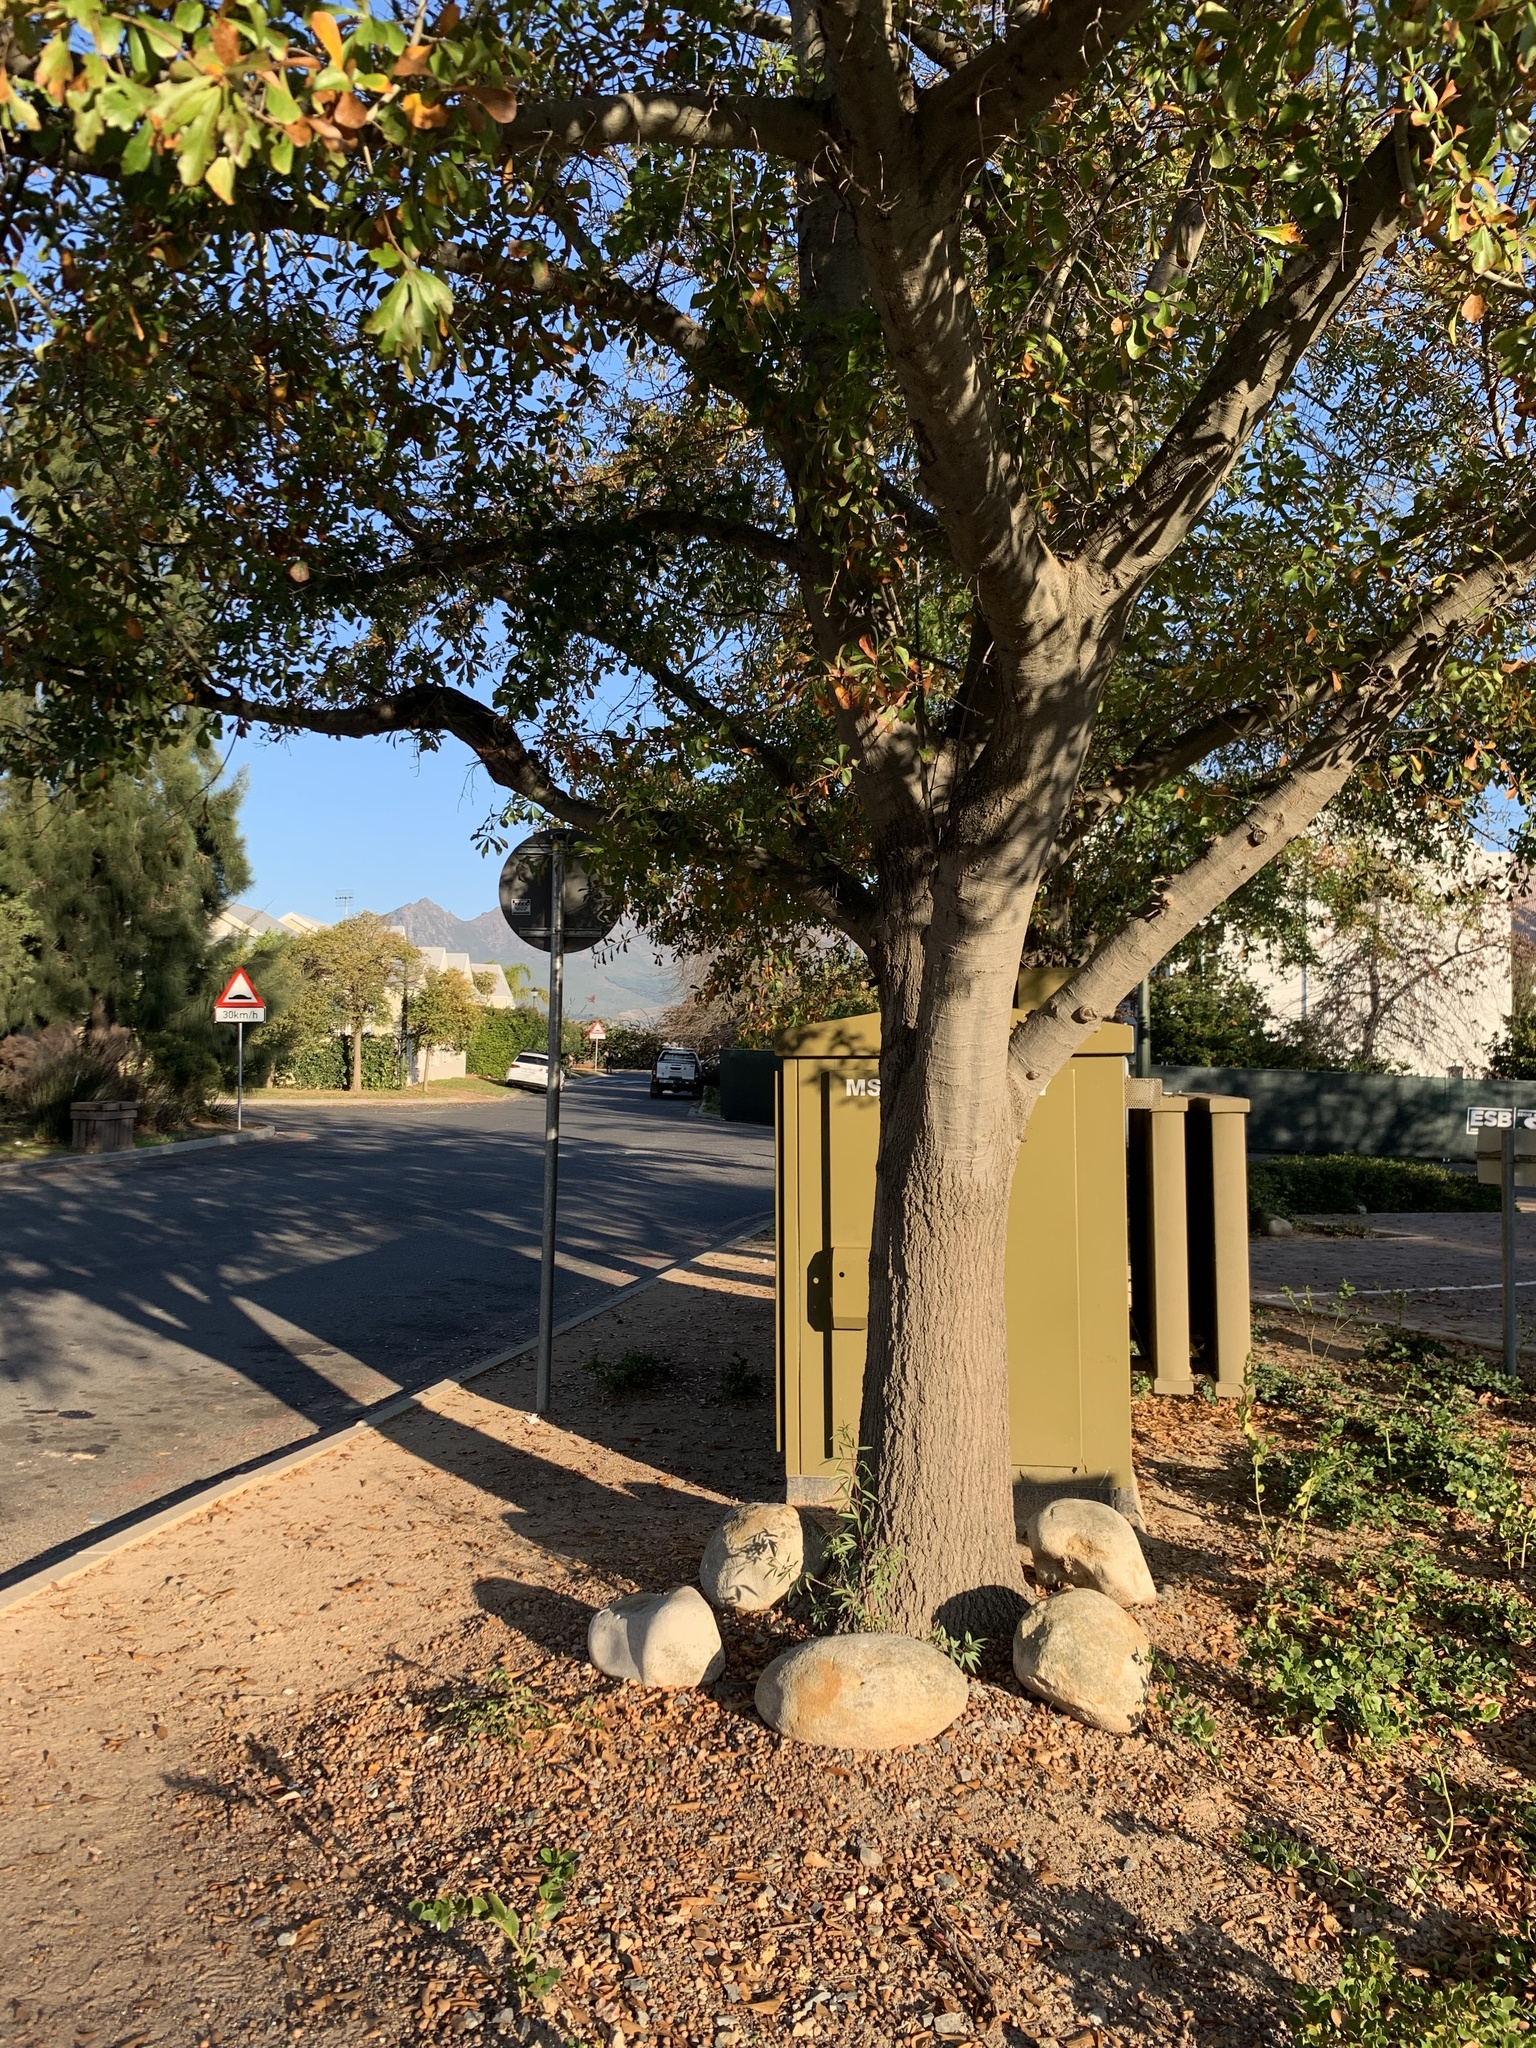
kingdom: Plantae
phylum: Tracheophyta
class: Magnoliopsida
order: Sapindales
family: Anacardiaceae
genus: Searsia
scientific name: Searsia pendulina
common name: White karee
